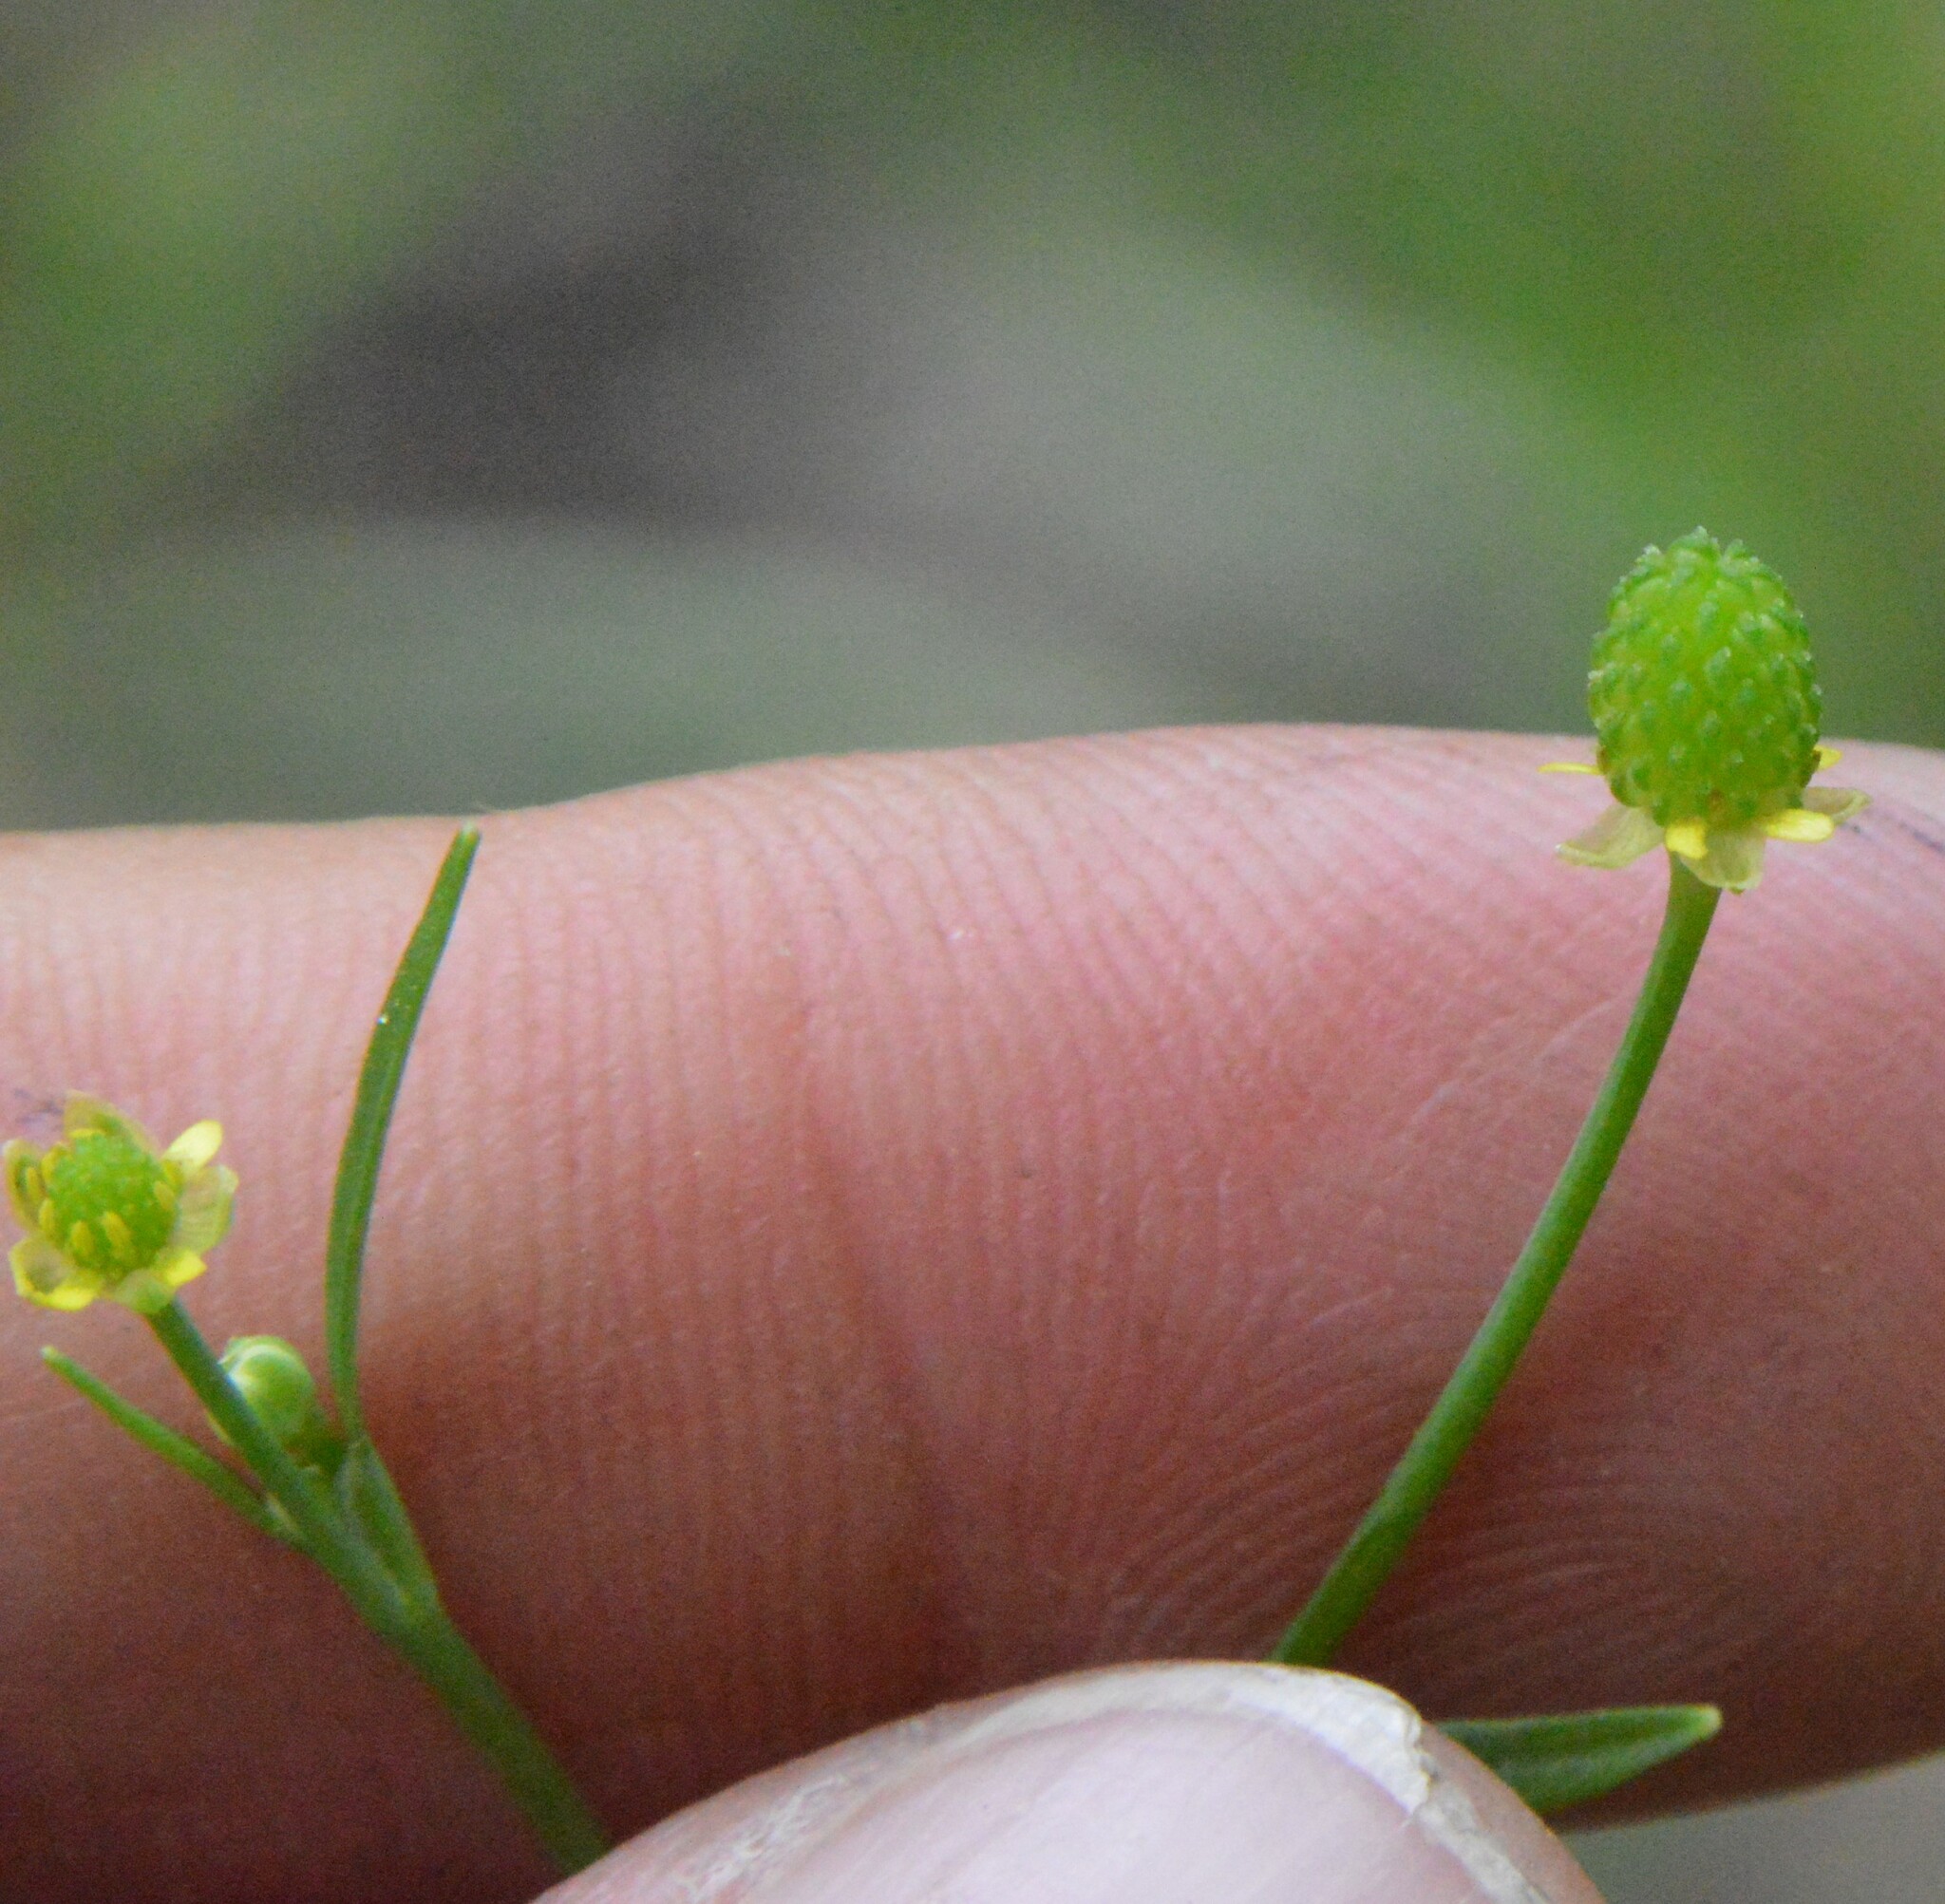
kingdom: Plantae
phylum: Tracheophyta
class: Magnoliopsida
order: Ranunculales
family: Ranunculaceae
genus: Ranunculus
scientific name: Ranunculus pusillus
